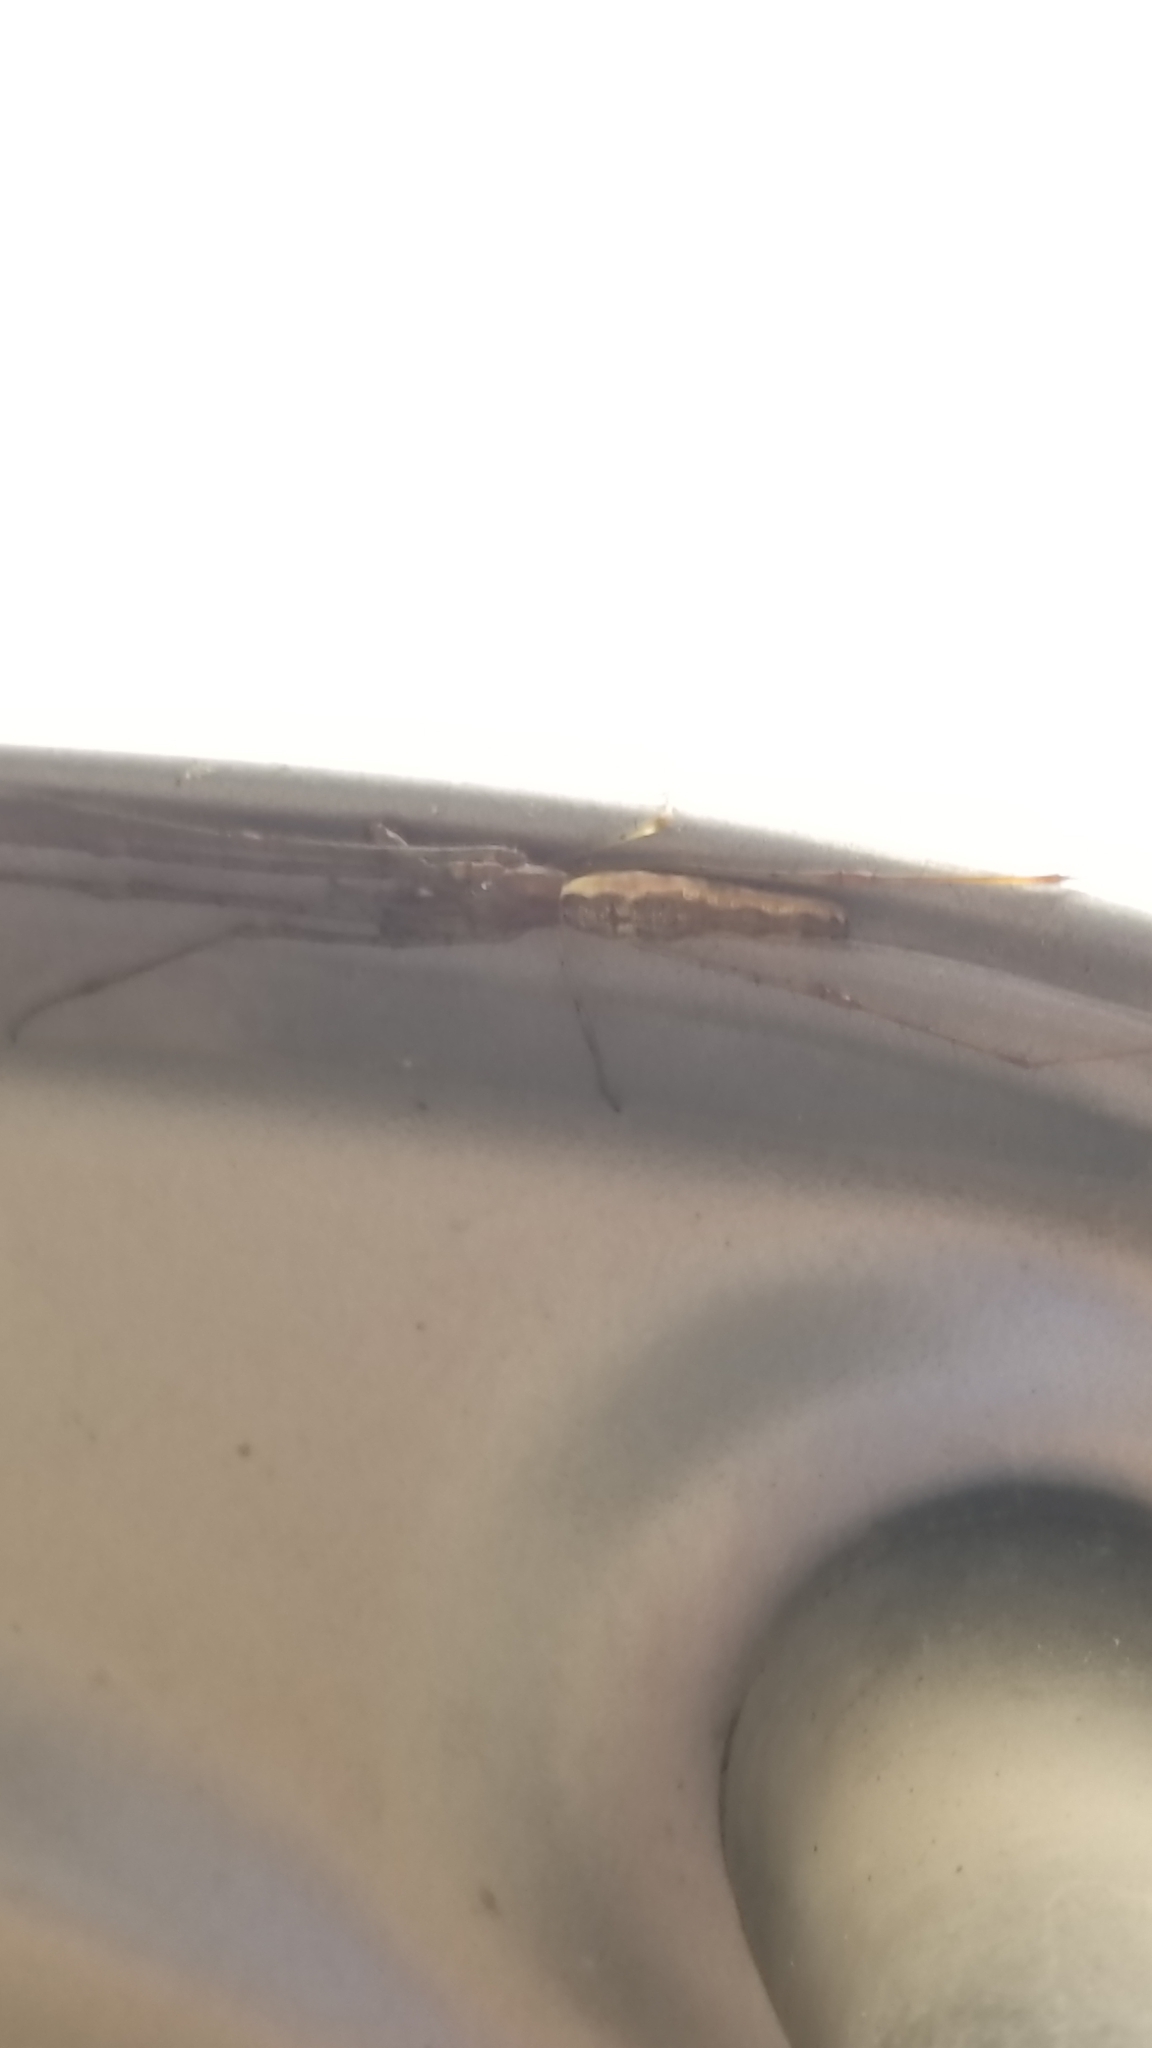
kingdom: Animalia
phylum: Arthropoda
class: Arachnida
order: Araneae
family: Tetragnathidae
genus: Tetragnatha
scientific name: Tetragnatha
